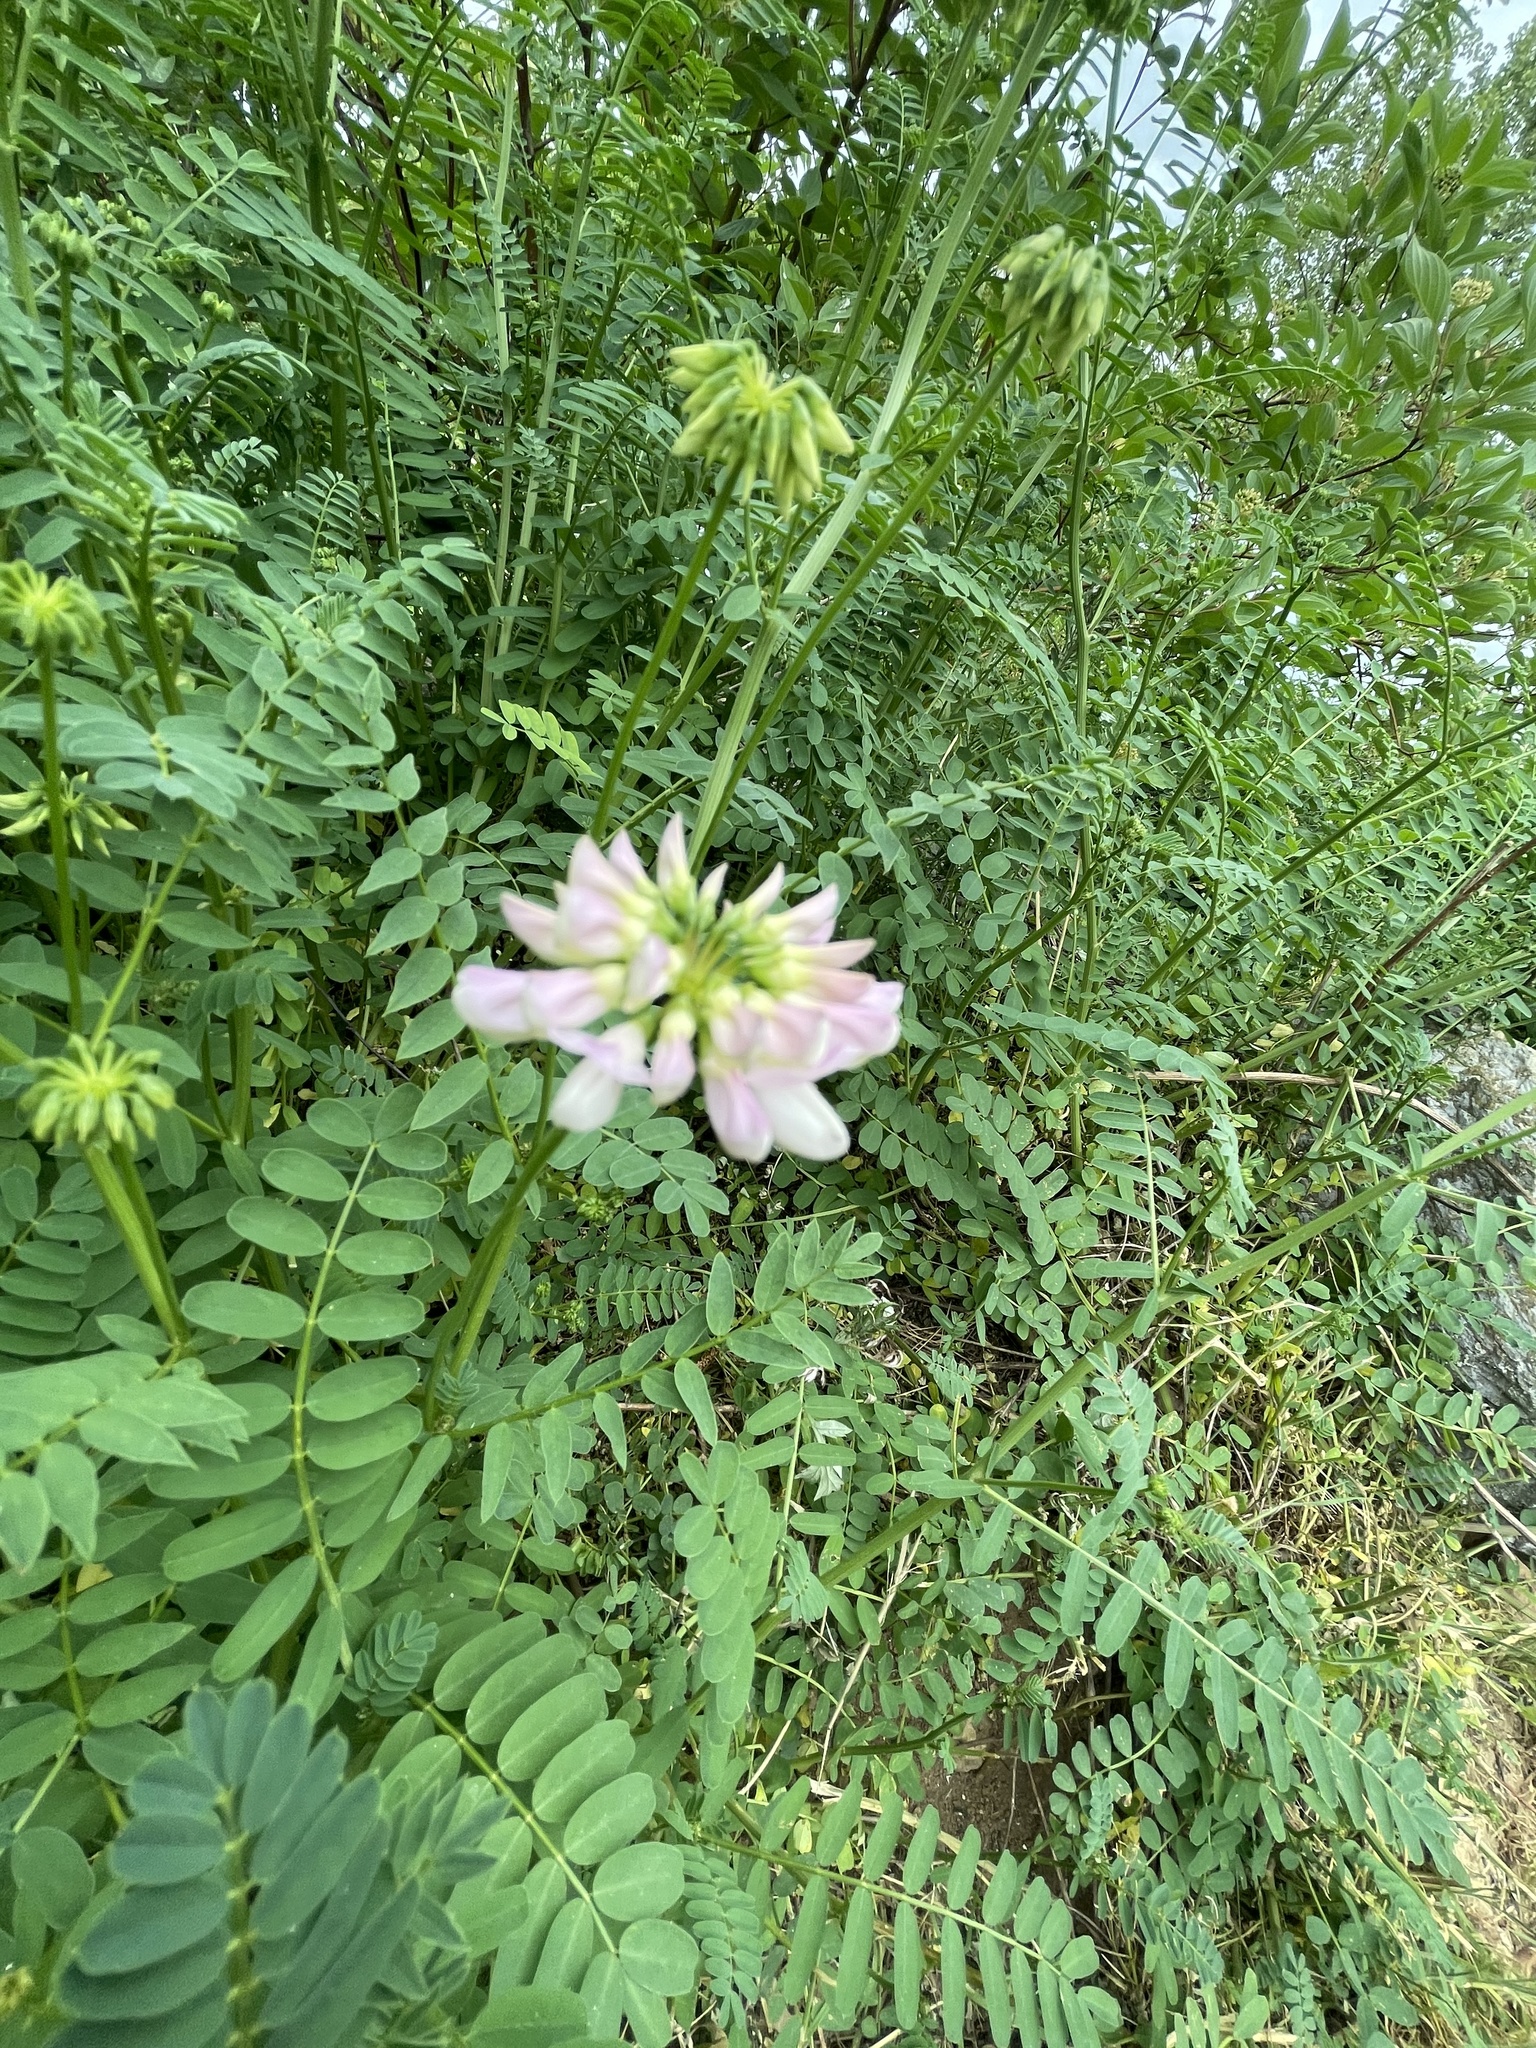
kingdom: Plantae
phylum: Tracheophyta
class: Magnoliopsida
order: Fabales
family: Fabaceae
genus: Coronilla
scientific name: Coronilla varia
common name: Crownvetch
